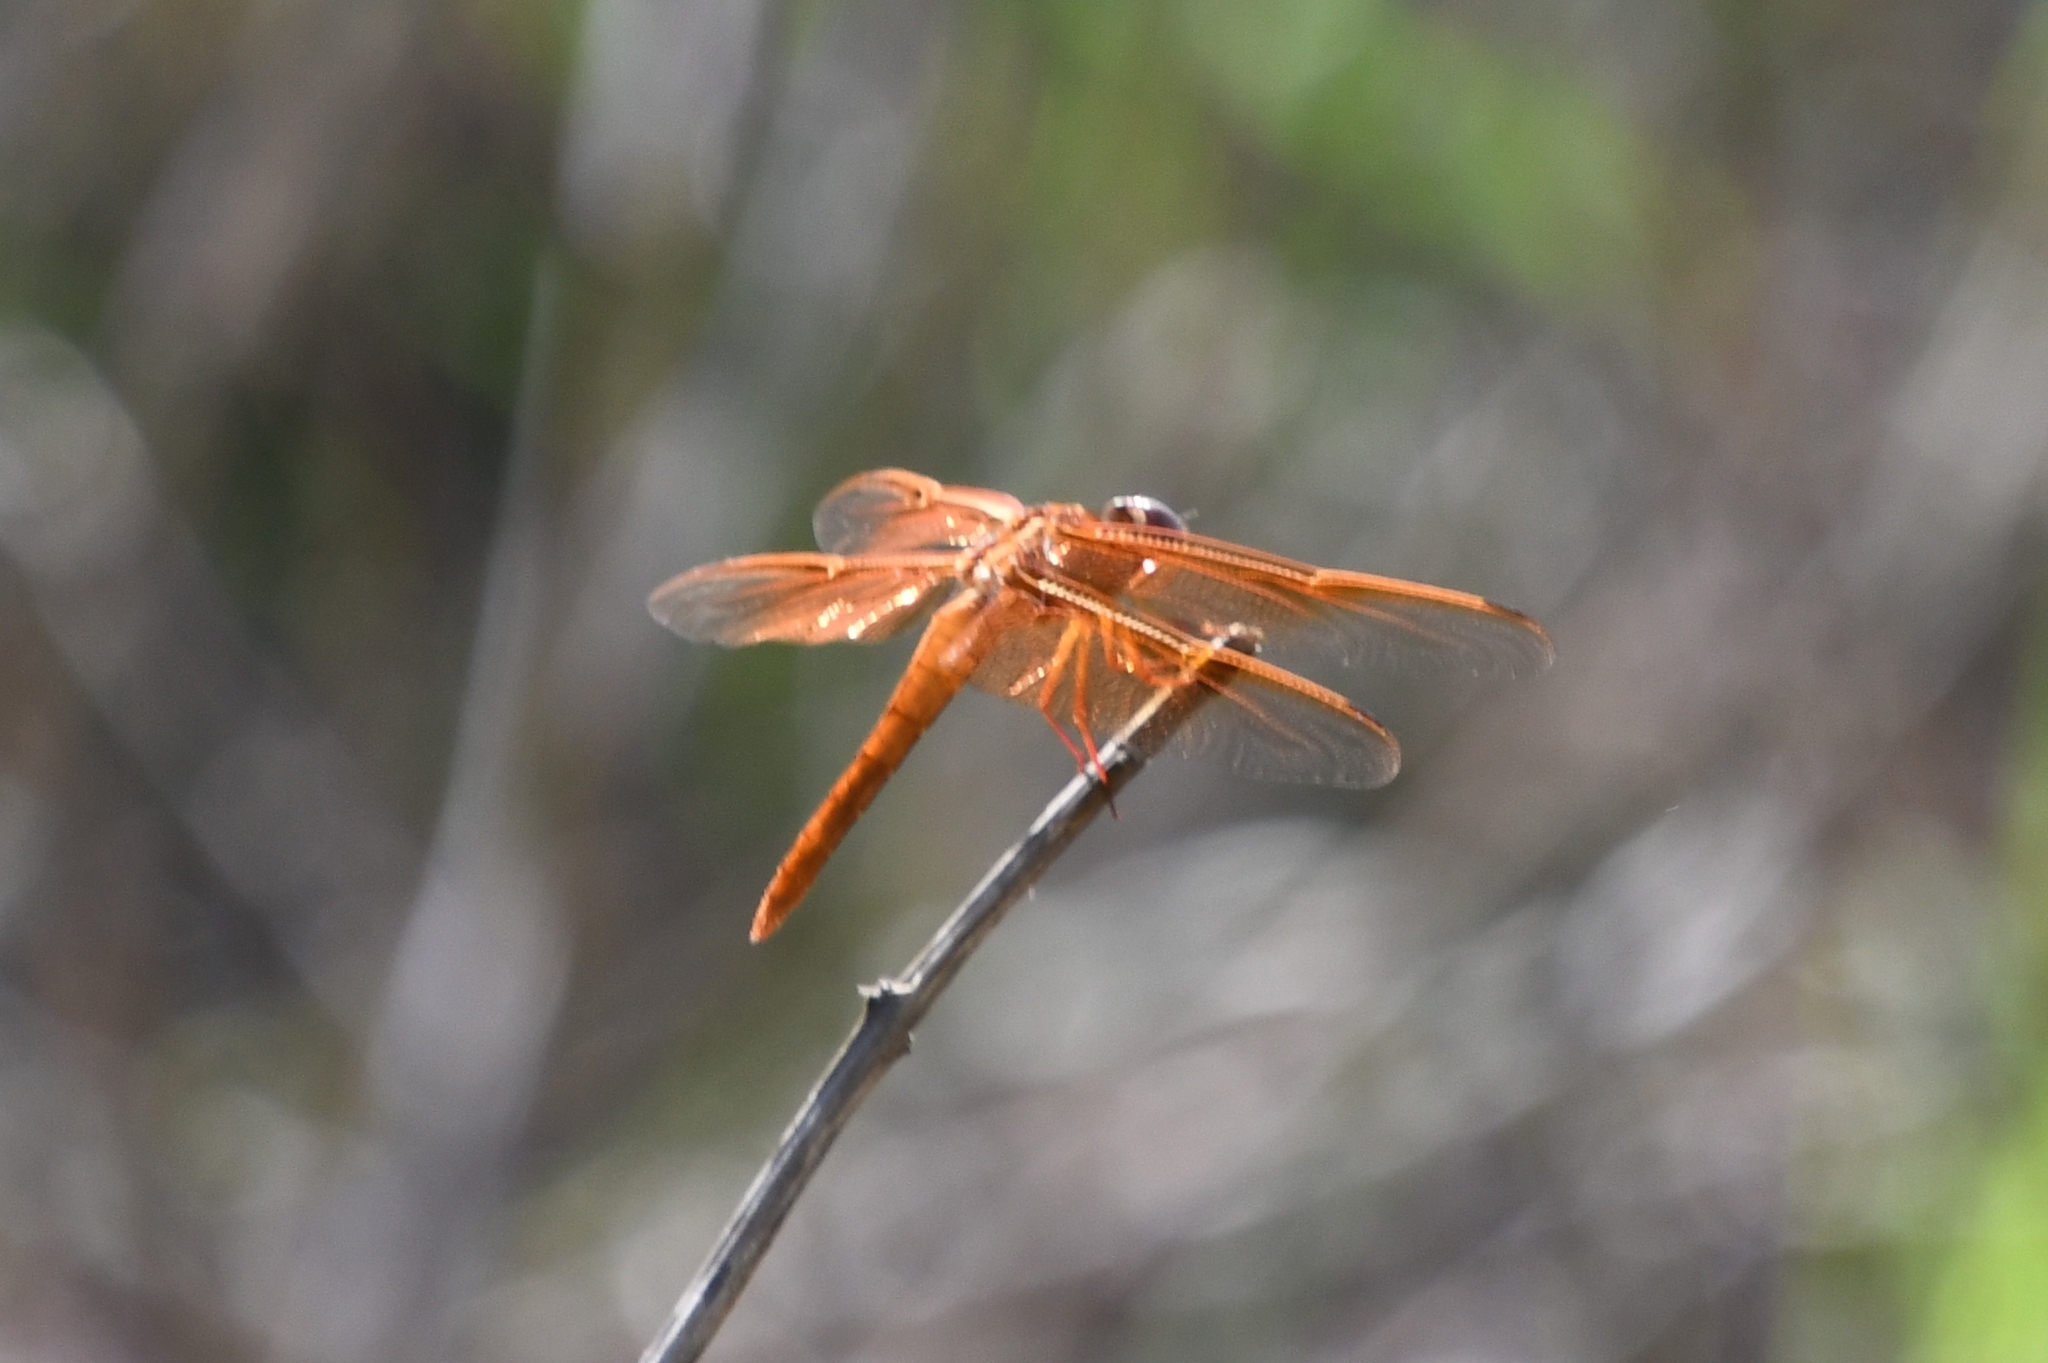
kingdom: Animalia
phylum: Arthropoda
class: Insecta
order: Odonata
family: Libellulidae
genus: Libellula
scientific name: Libellula saturata
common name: Flame skimmer
